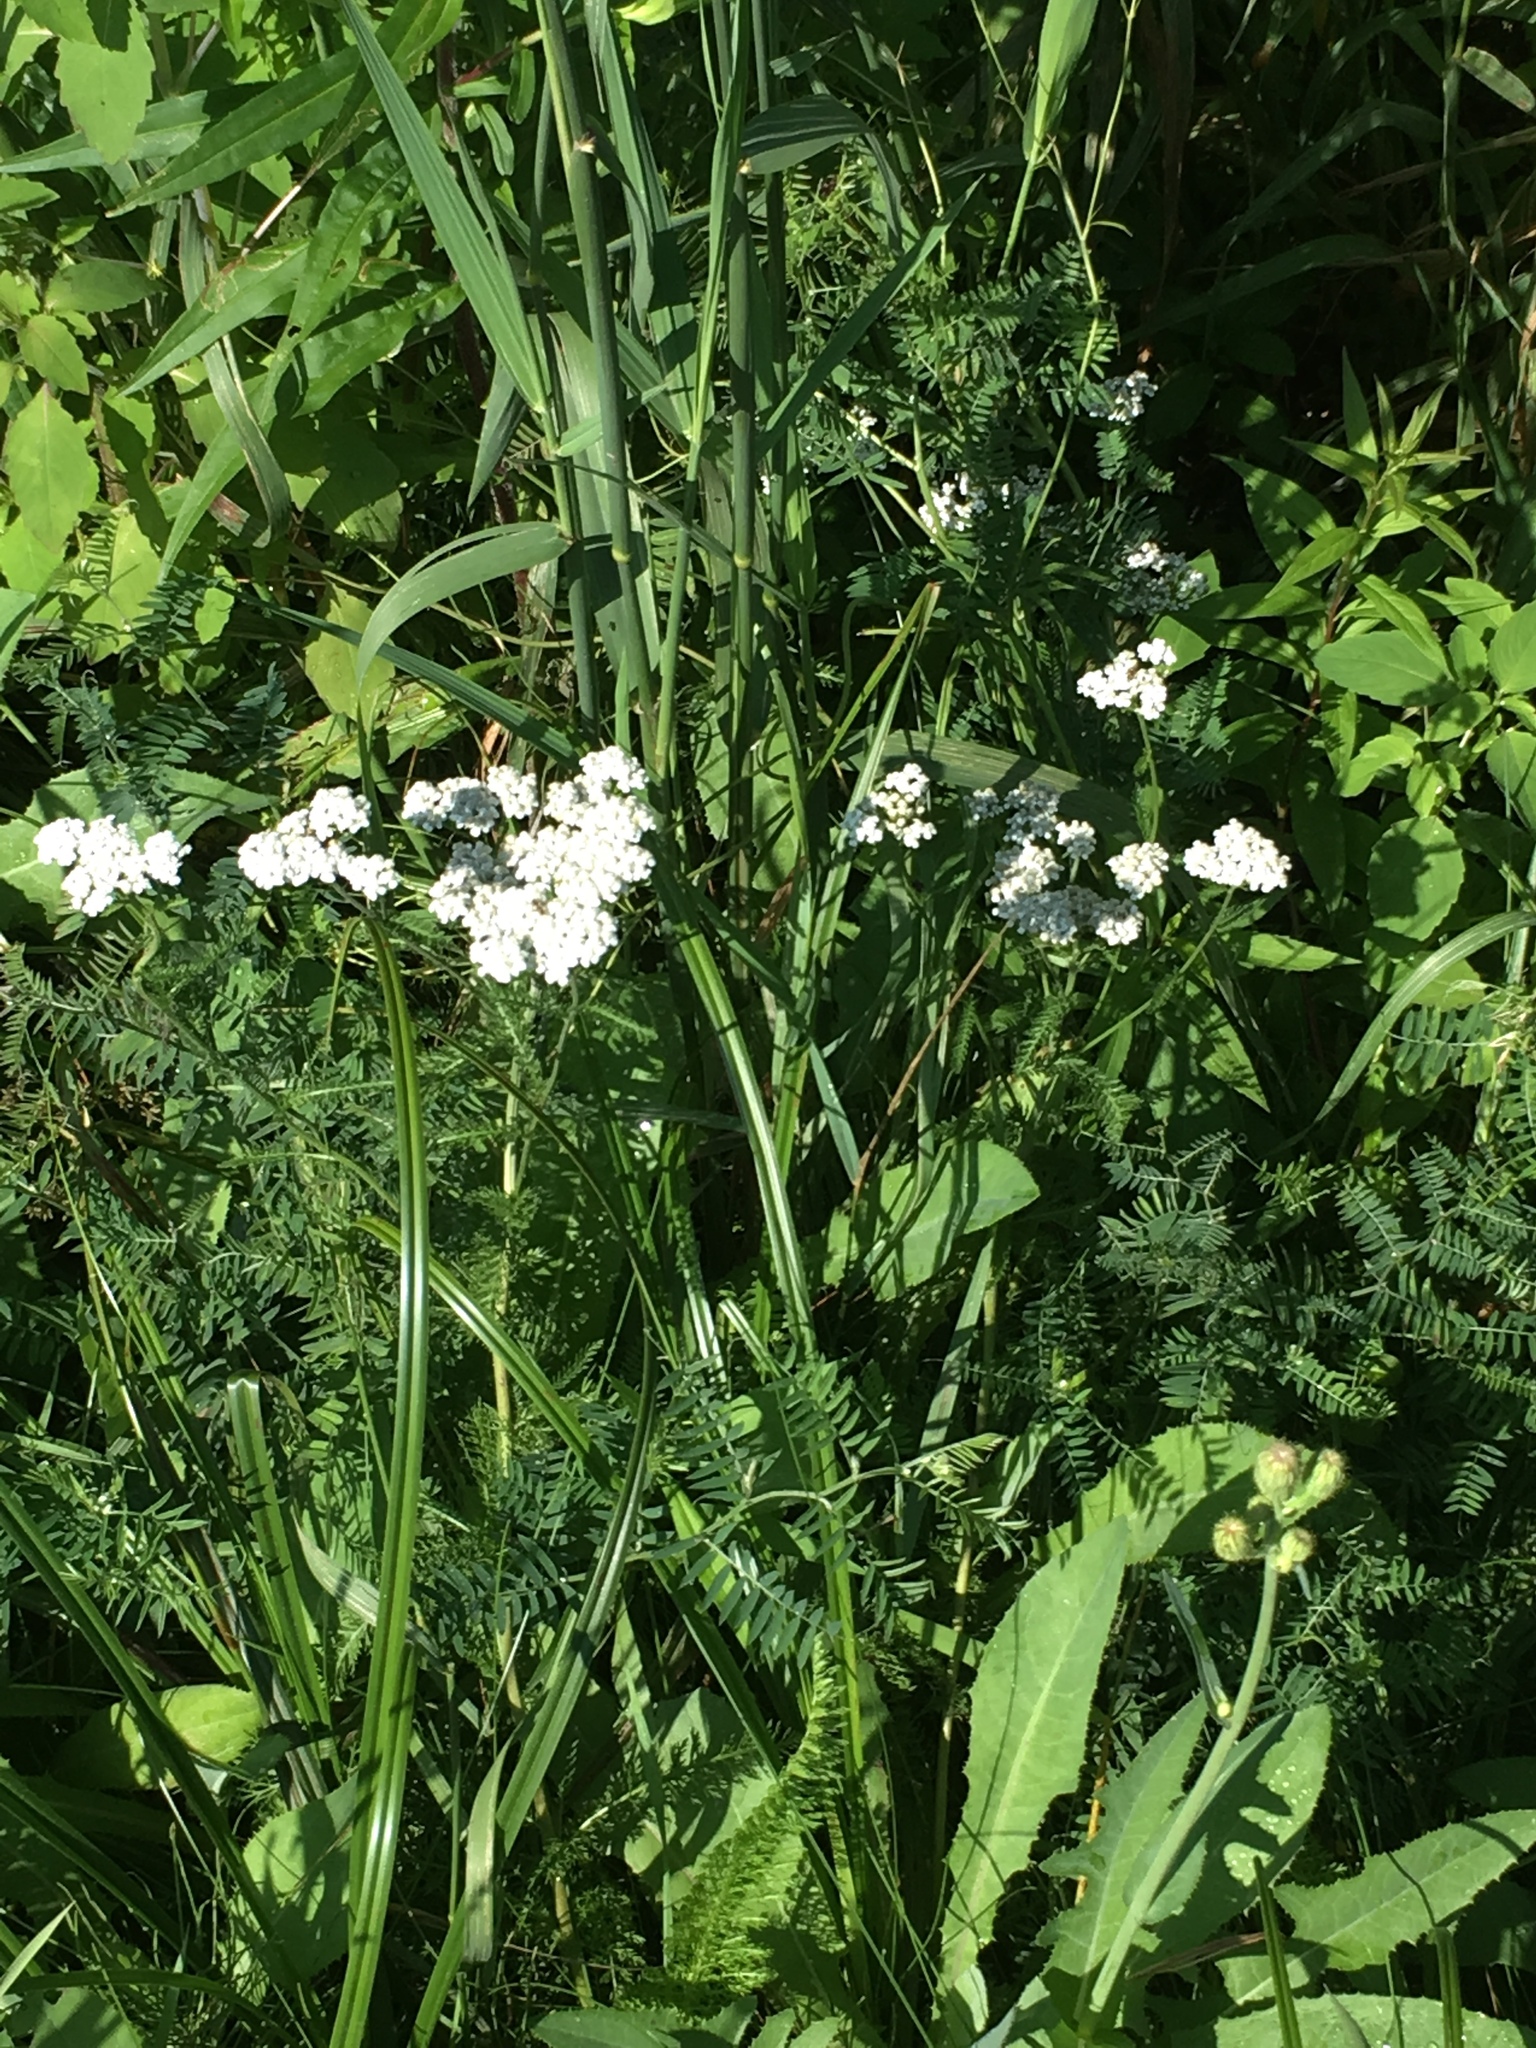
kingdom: Plantae
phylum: Tracheophyta
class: Magnoliopsida
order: Asterales
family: Asteraceae
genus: Achillea
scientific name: Achillea millefolium
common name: Yarrow
